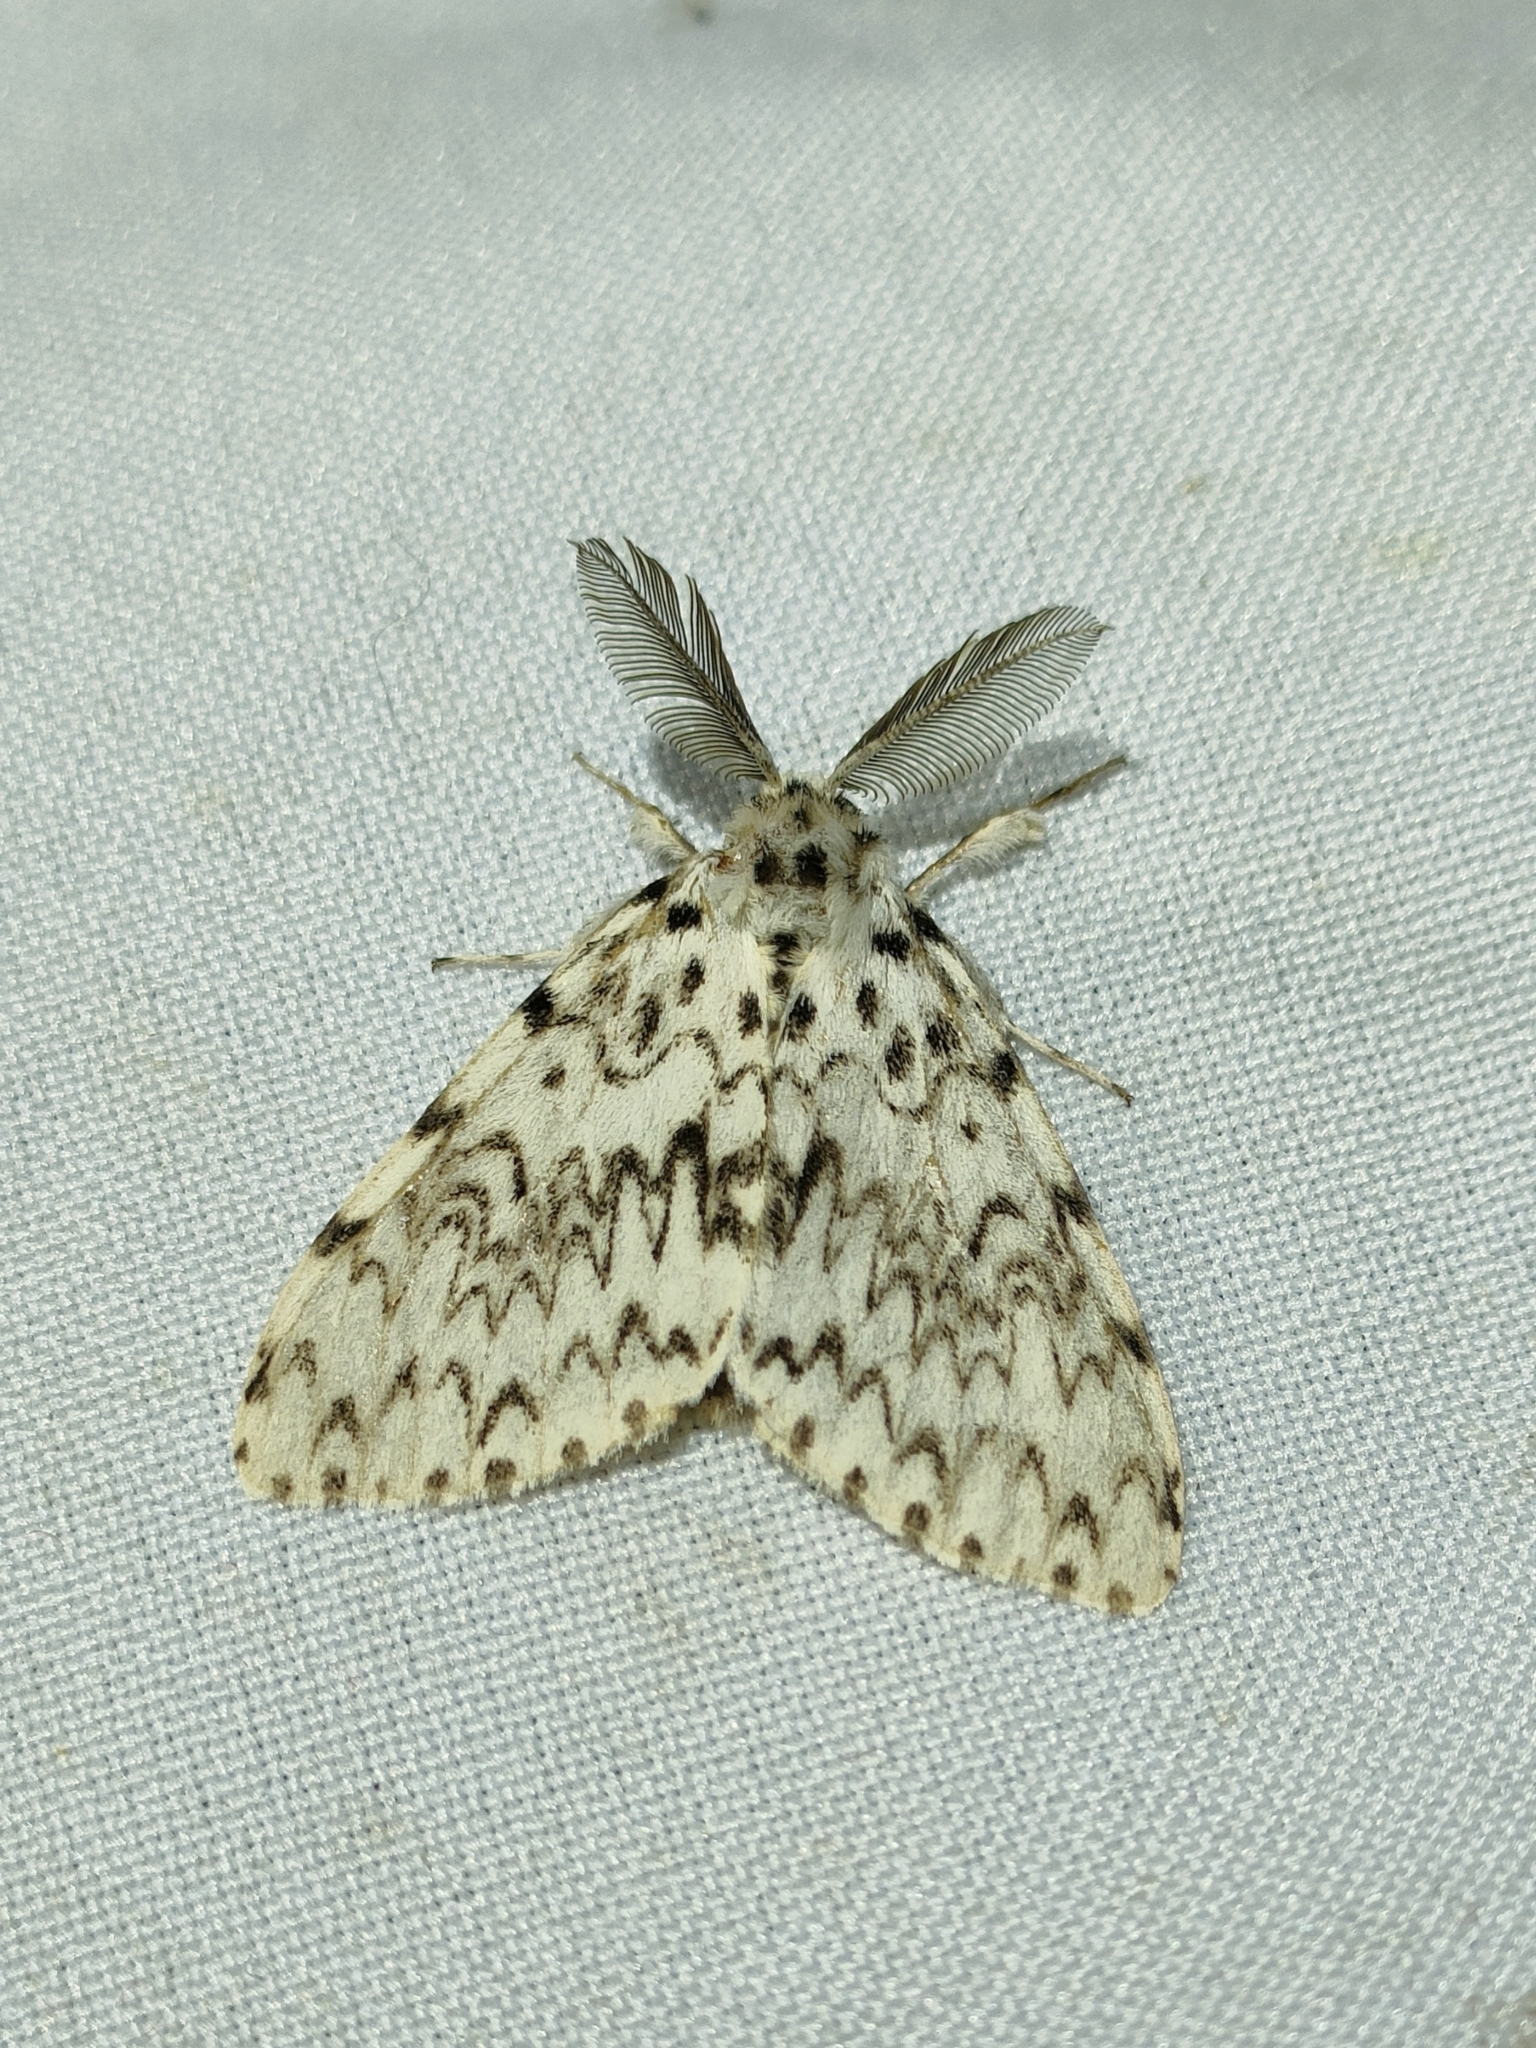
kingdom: Animalia
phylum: Arthropoda
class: Insecta
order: Lepidoptera
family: Erebidae
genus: Lymantria
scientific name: Lymantria monacha
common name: Black arches
